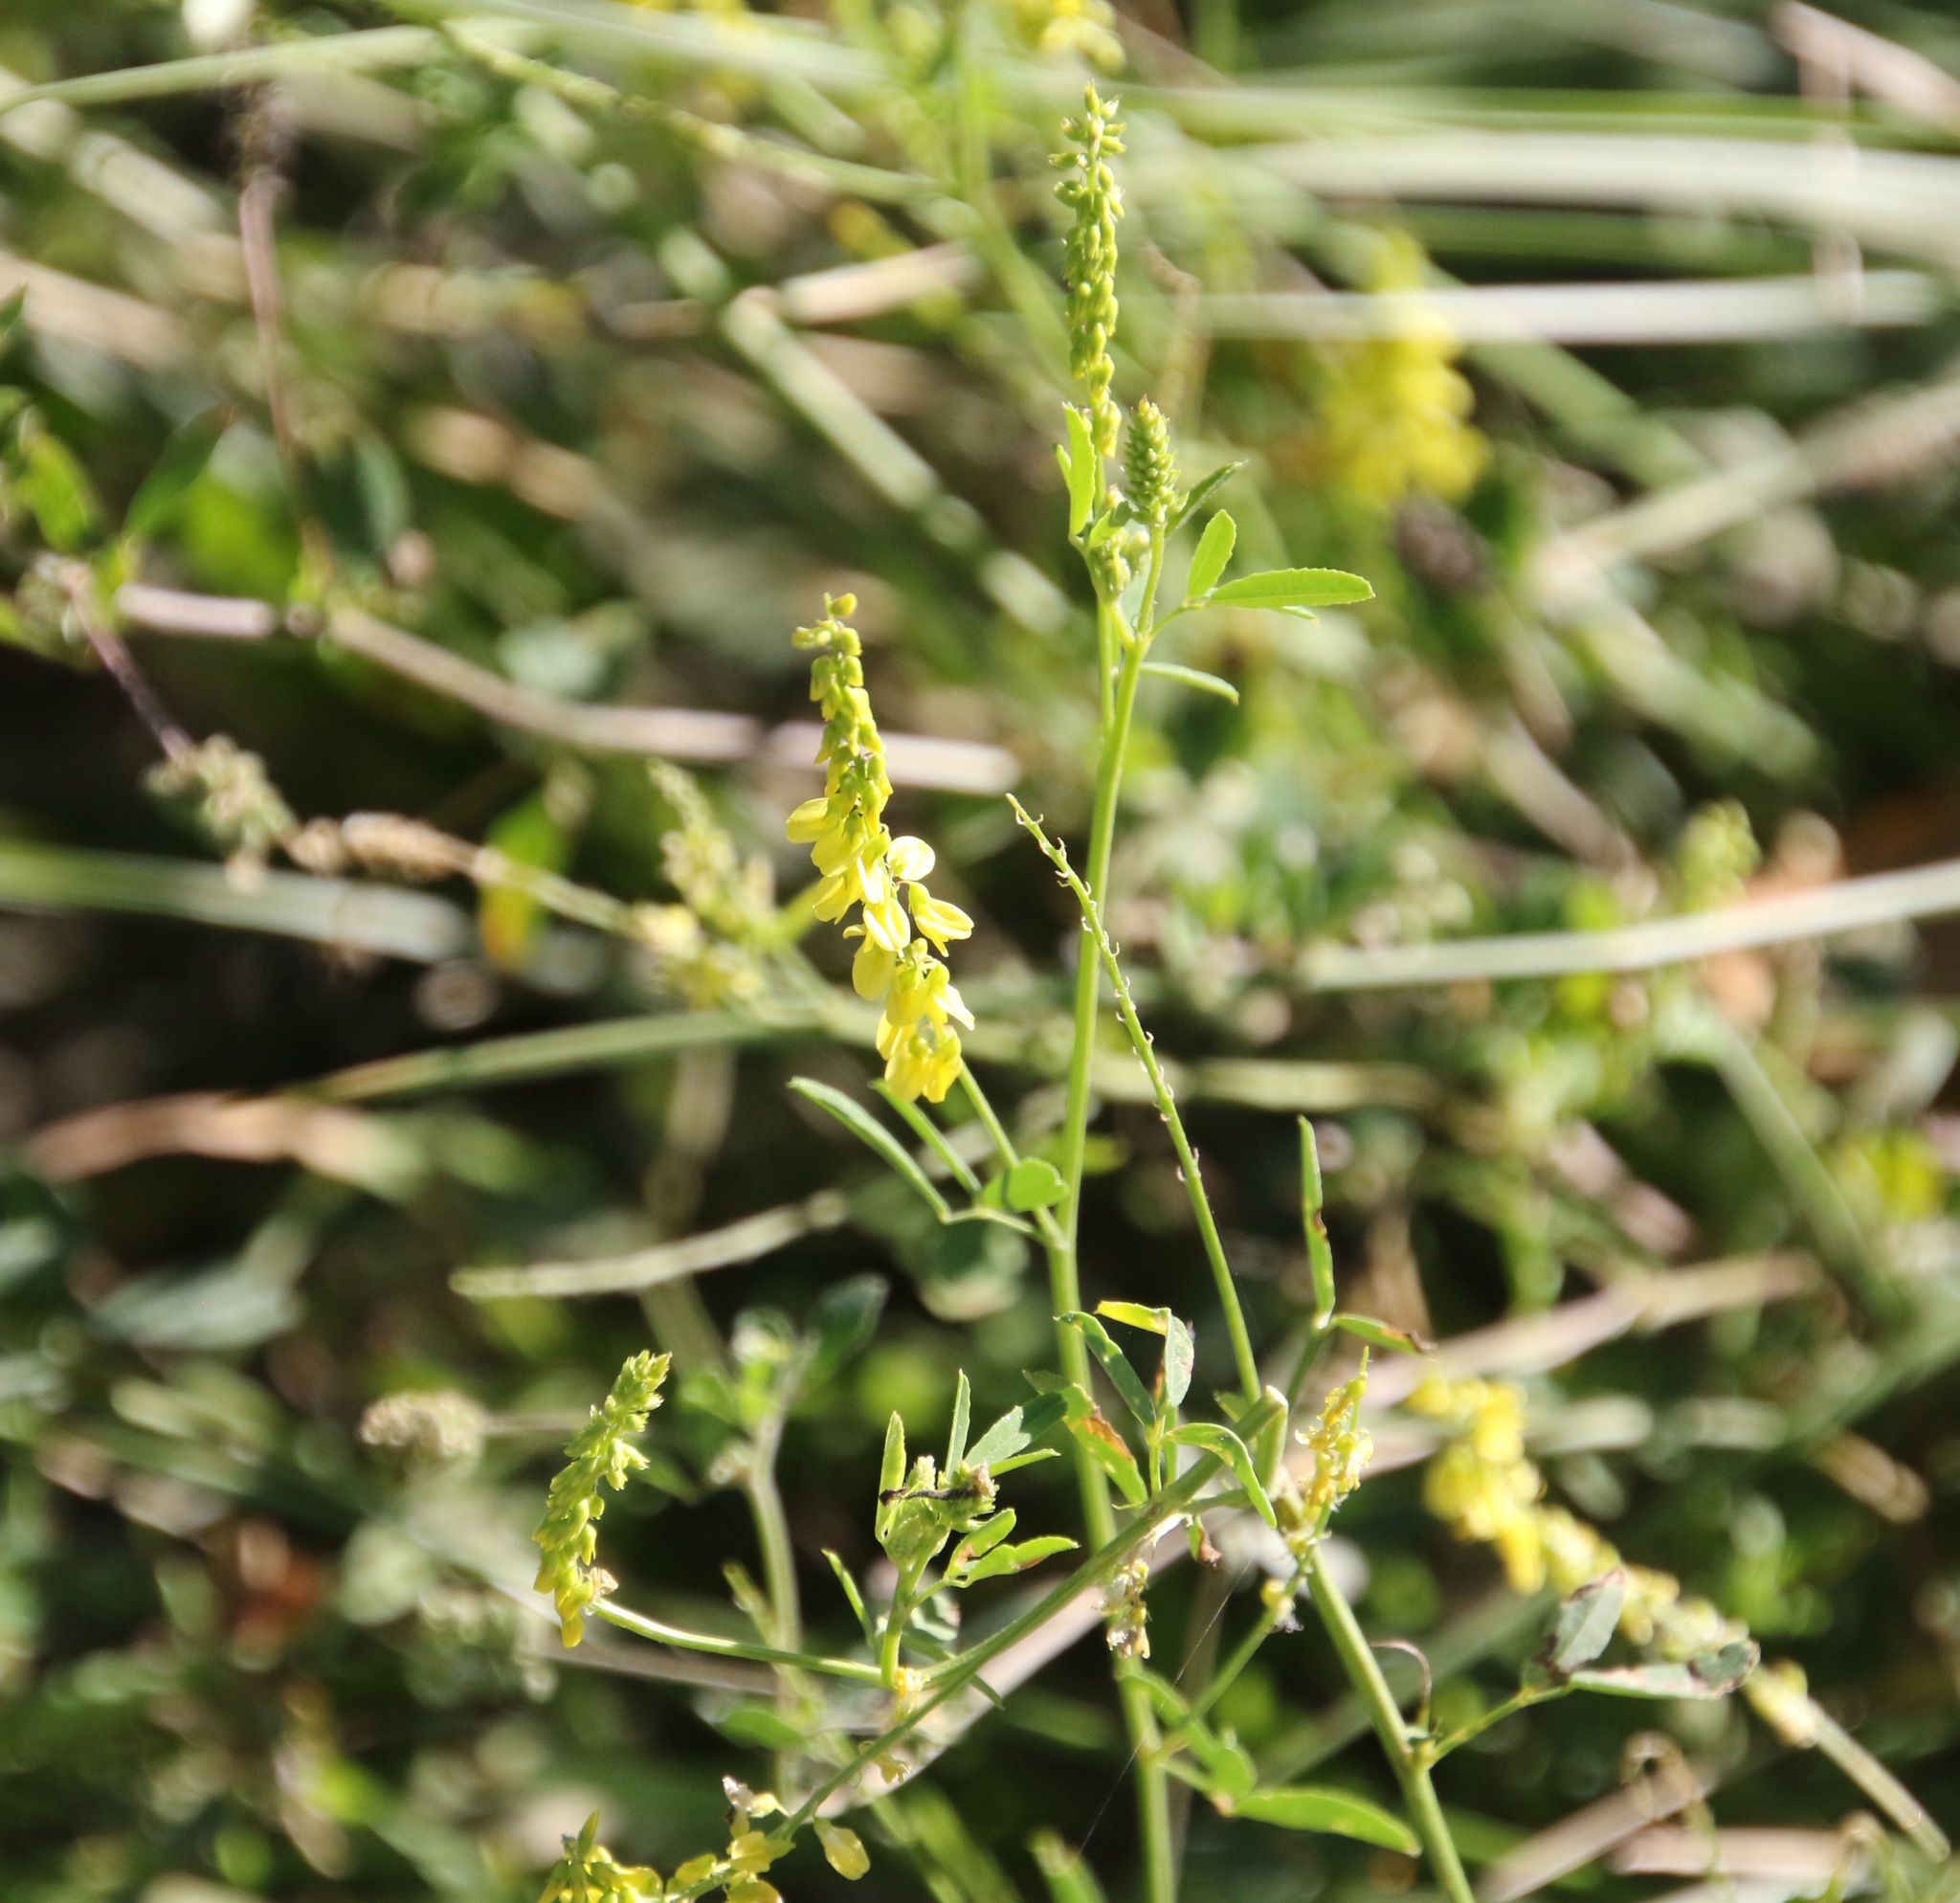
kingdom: Plantae
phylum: Tracheophyta
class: Magnoliopsida
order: Fabales
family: Fabaceae
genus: Melilotus
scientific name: Melilotus officinalis
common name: Sweetclover
